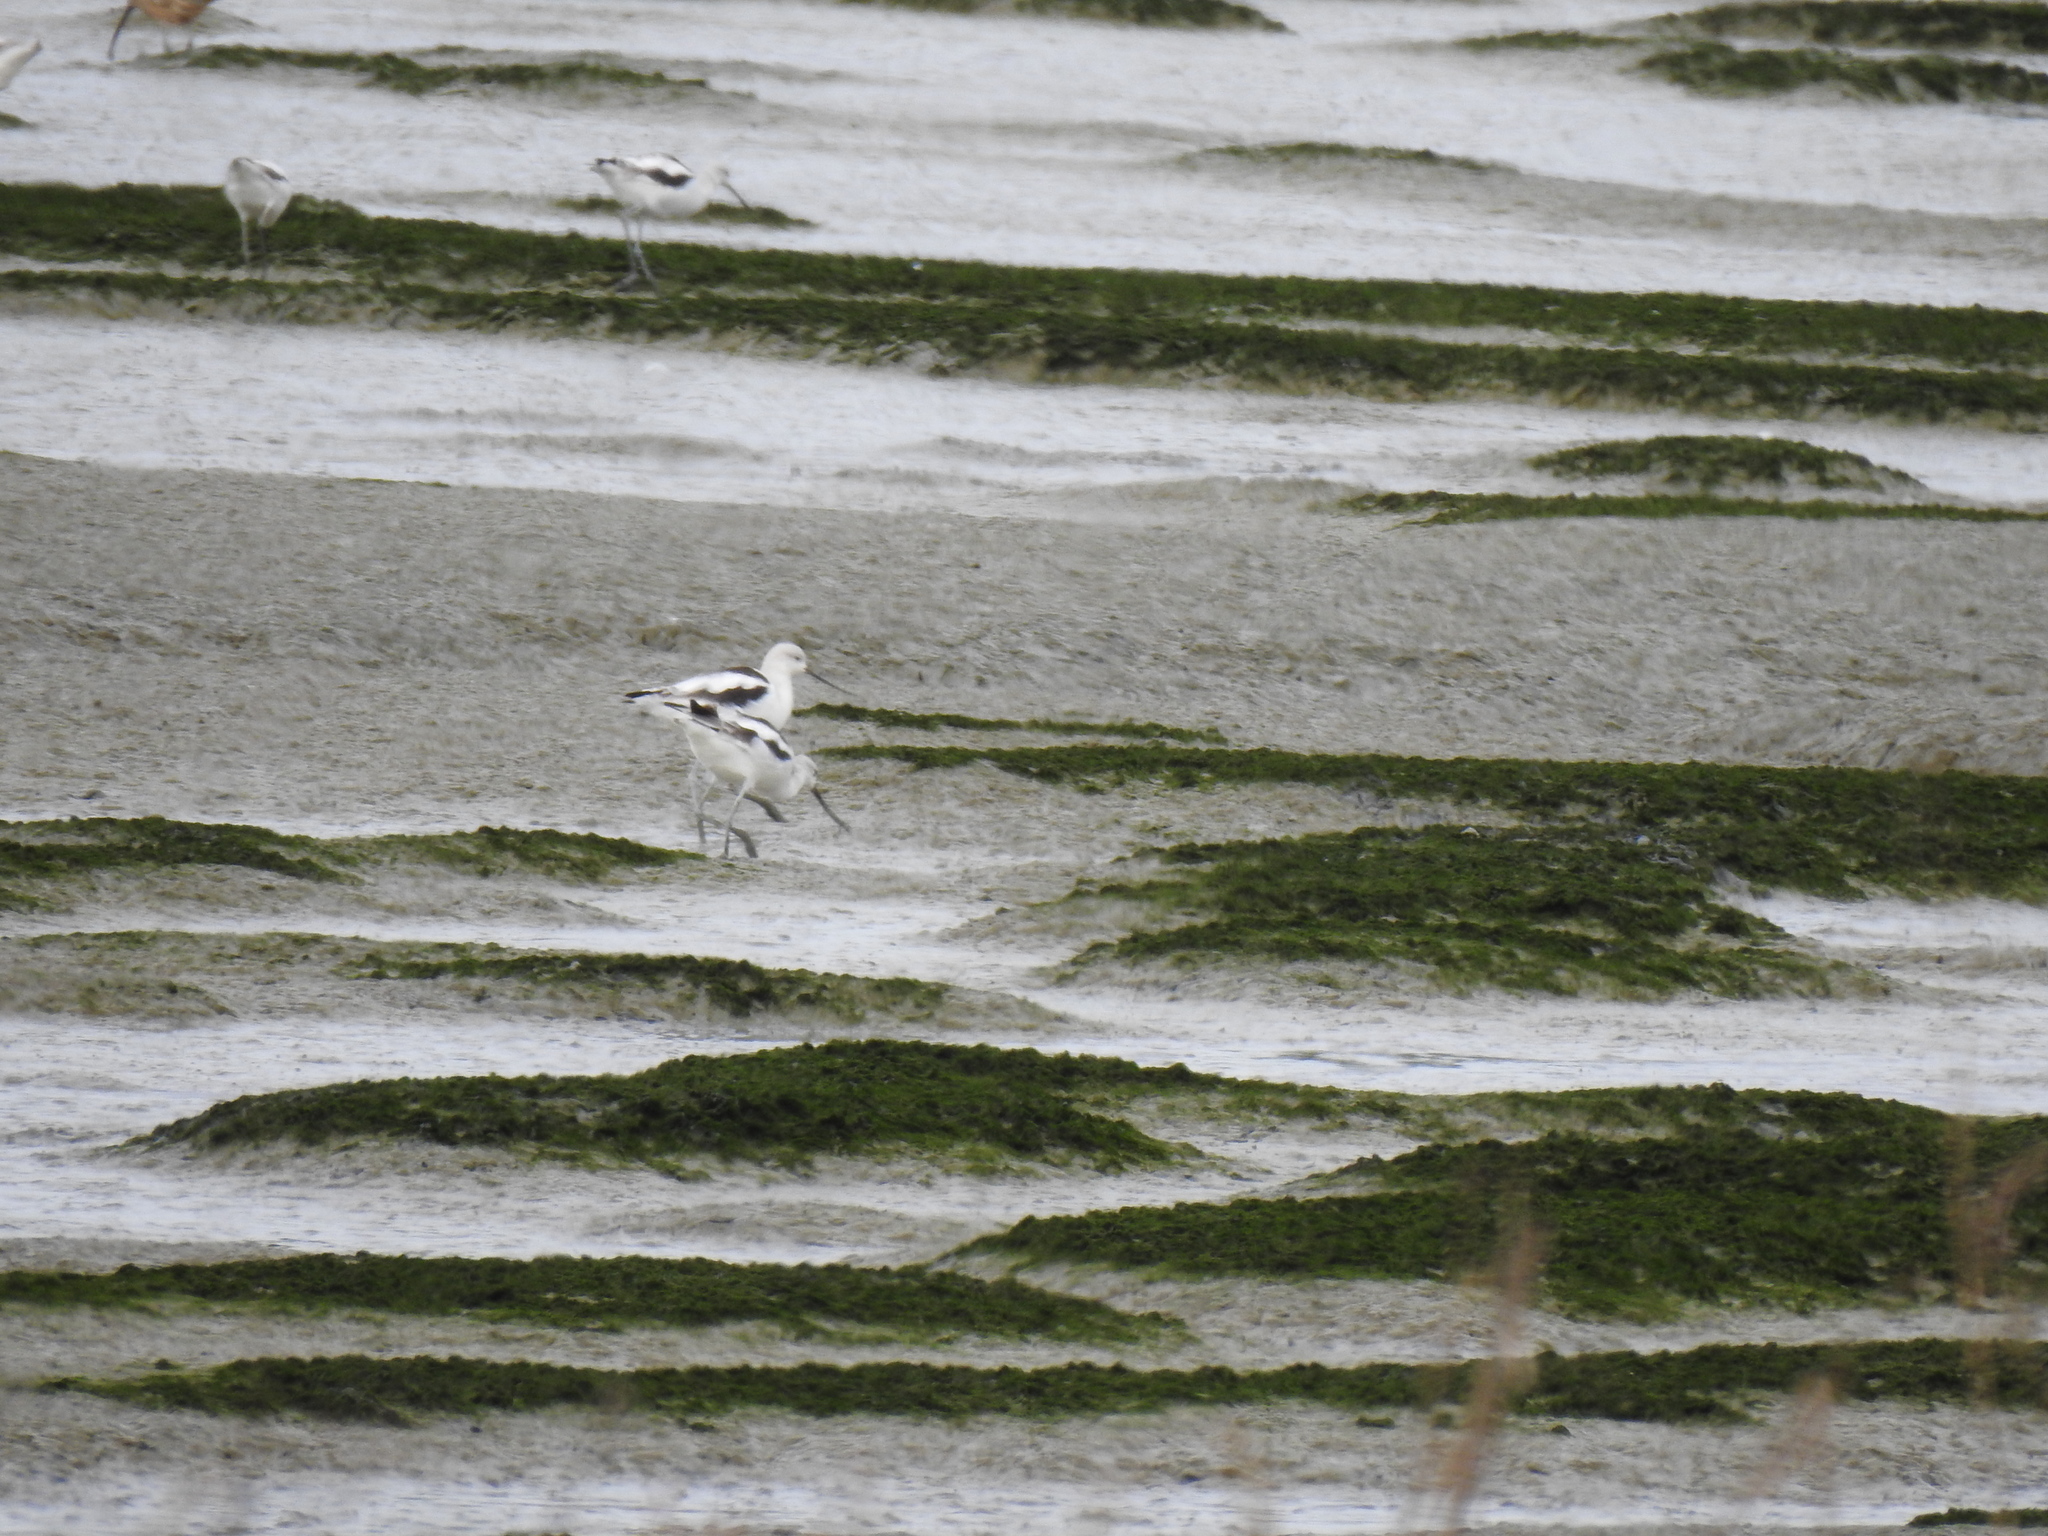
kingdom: Animalia
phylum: Chordata
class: Aves
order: Charadriiformes
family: Recurvirostridae
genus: Recurvirostra
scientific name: Recurvirostra americana
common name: American avocet
